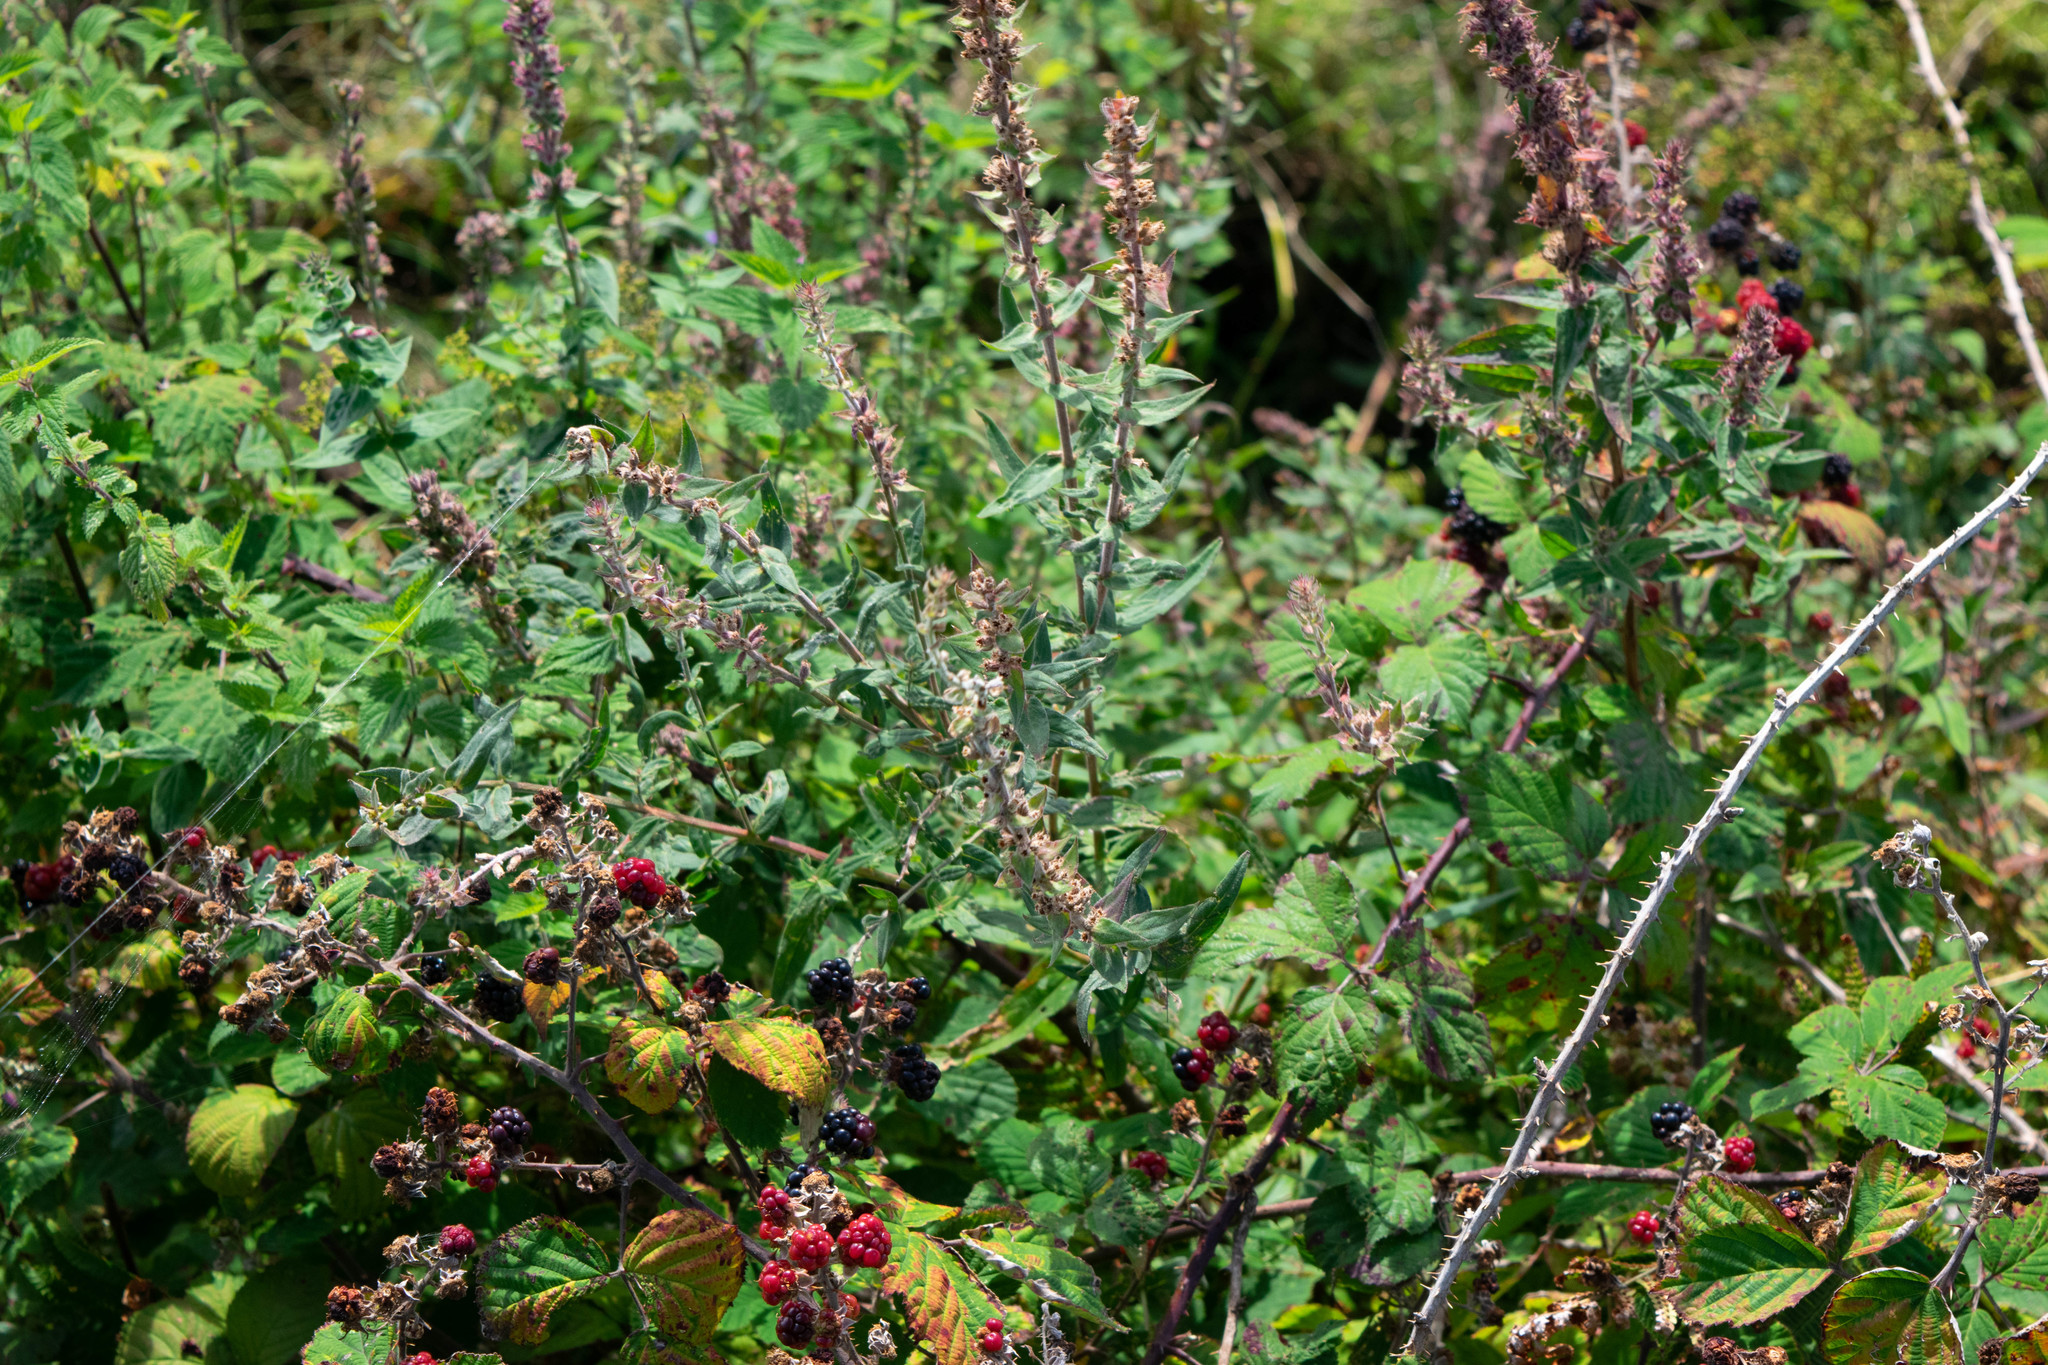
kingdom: Plantae
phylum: Tracheophyta
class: Magnoliopsida
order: Myrtales
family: Lythraceae
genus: Lythrum
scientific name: Lythrum salicaria
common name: Purple loosestrife
